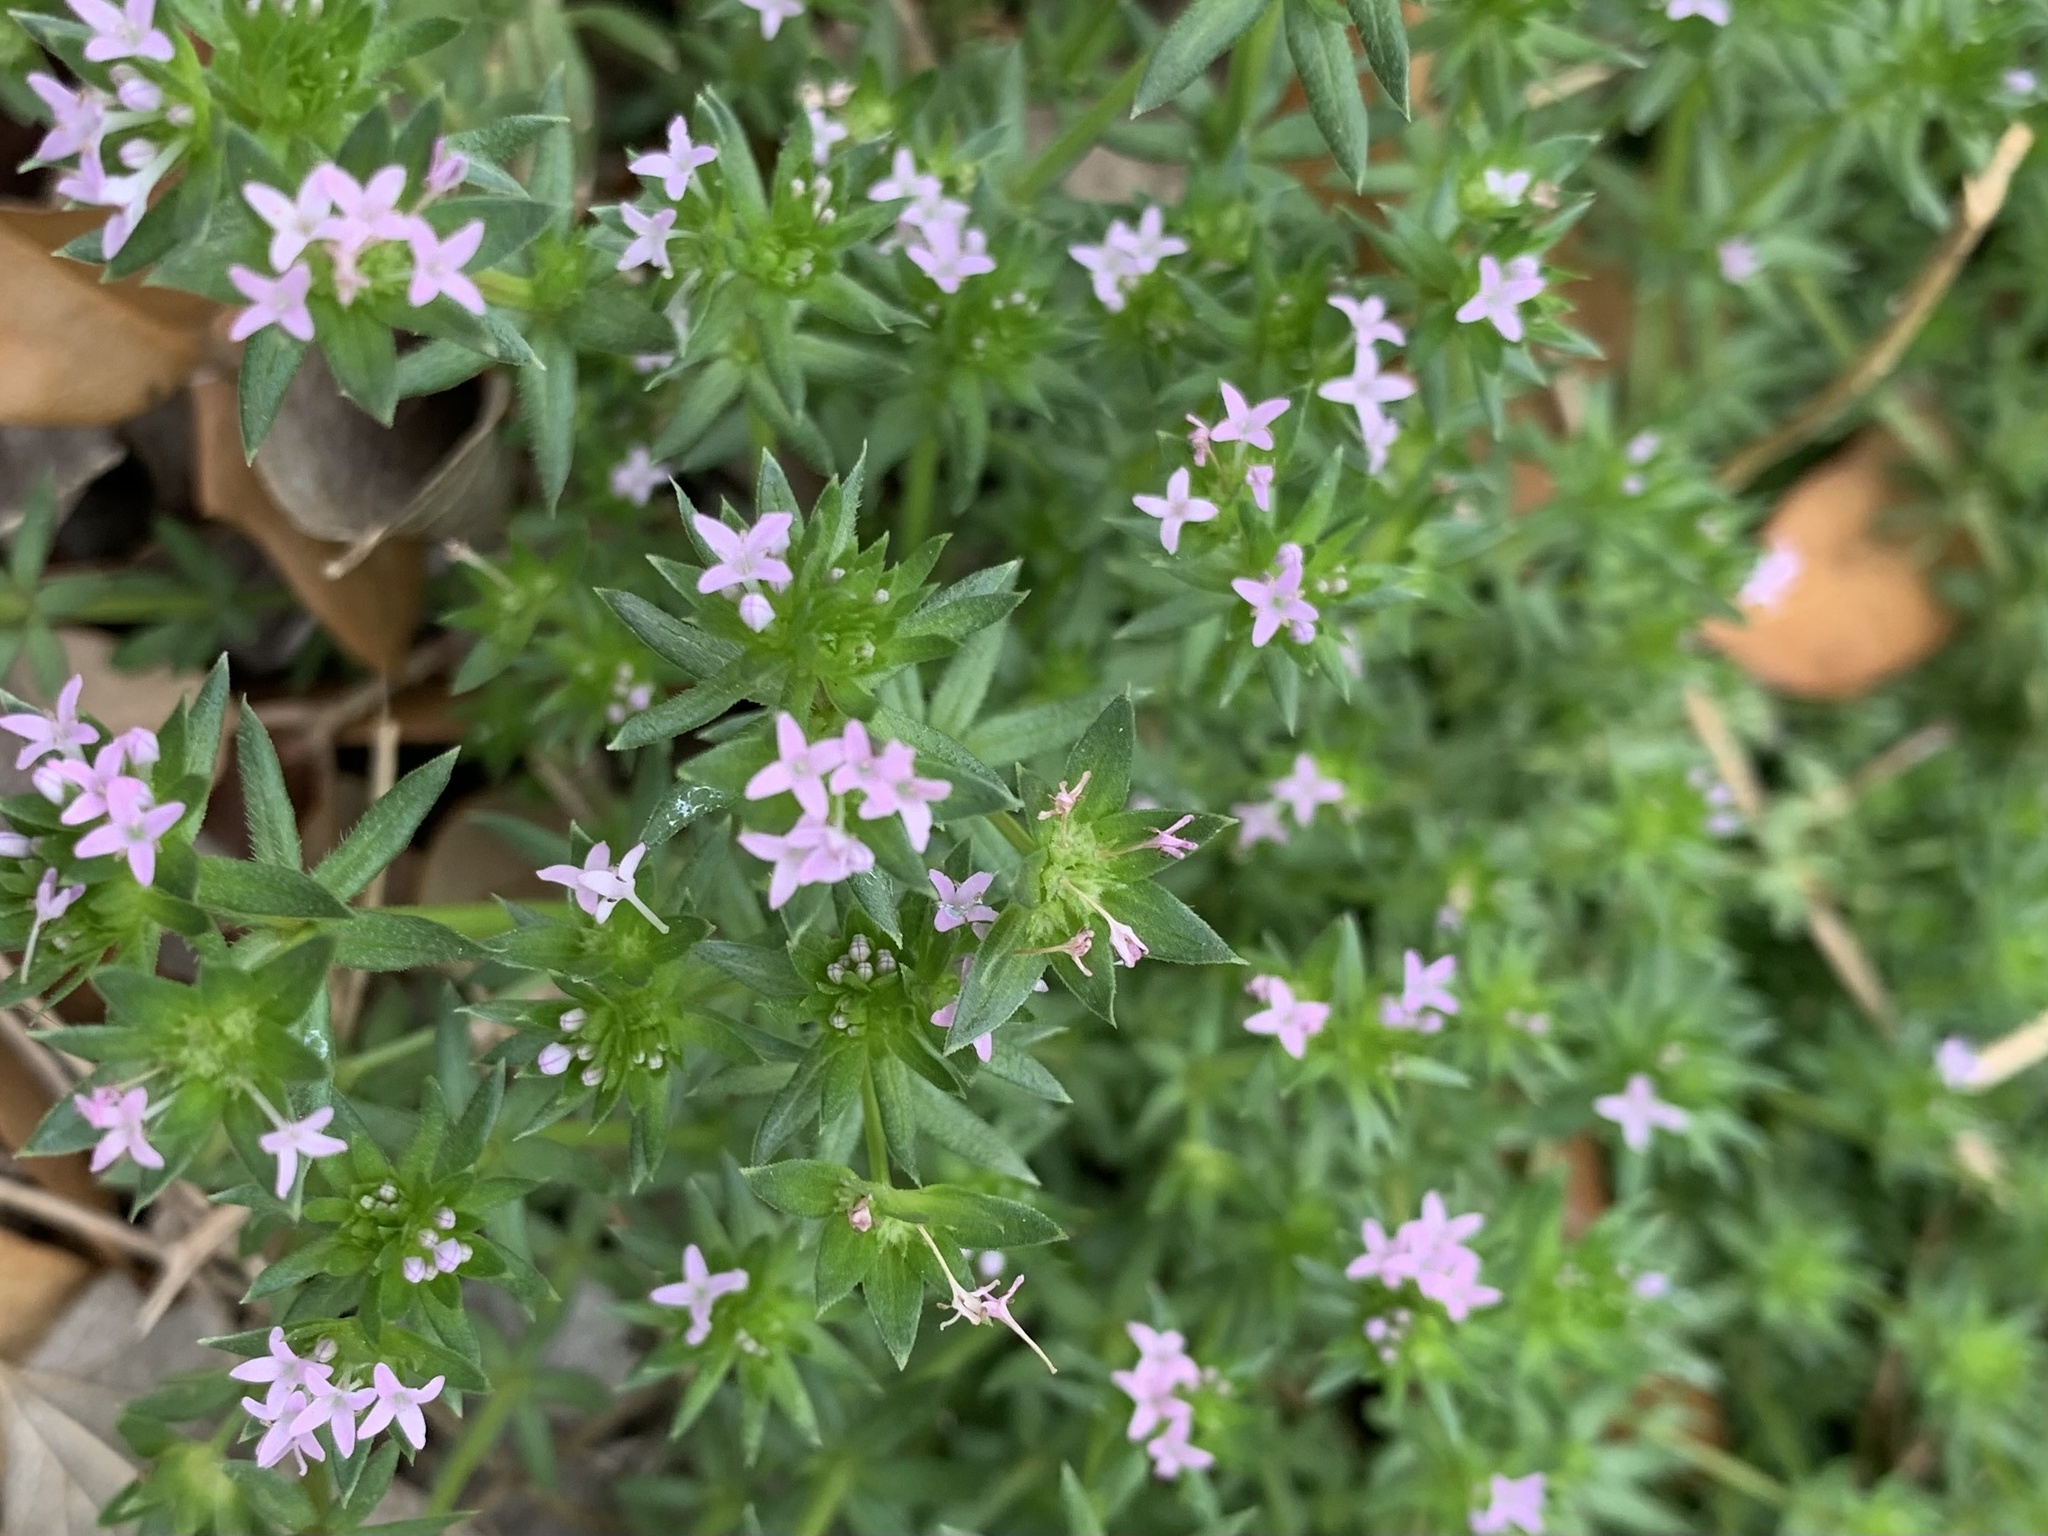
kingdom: Plantae
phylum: Tracheophyta
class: Magnoliopsida
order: Gentianales
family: Rubiaceae
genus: Sherardia
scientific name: Sherardia arvensis
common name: Field madder
